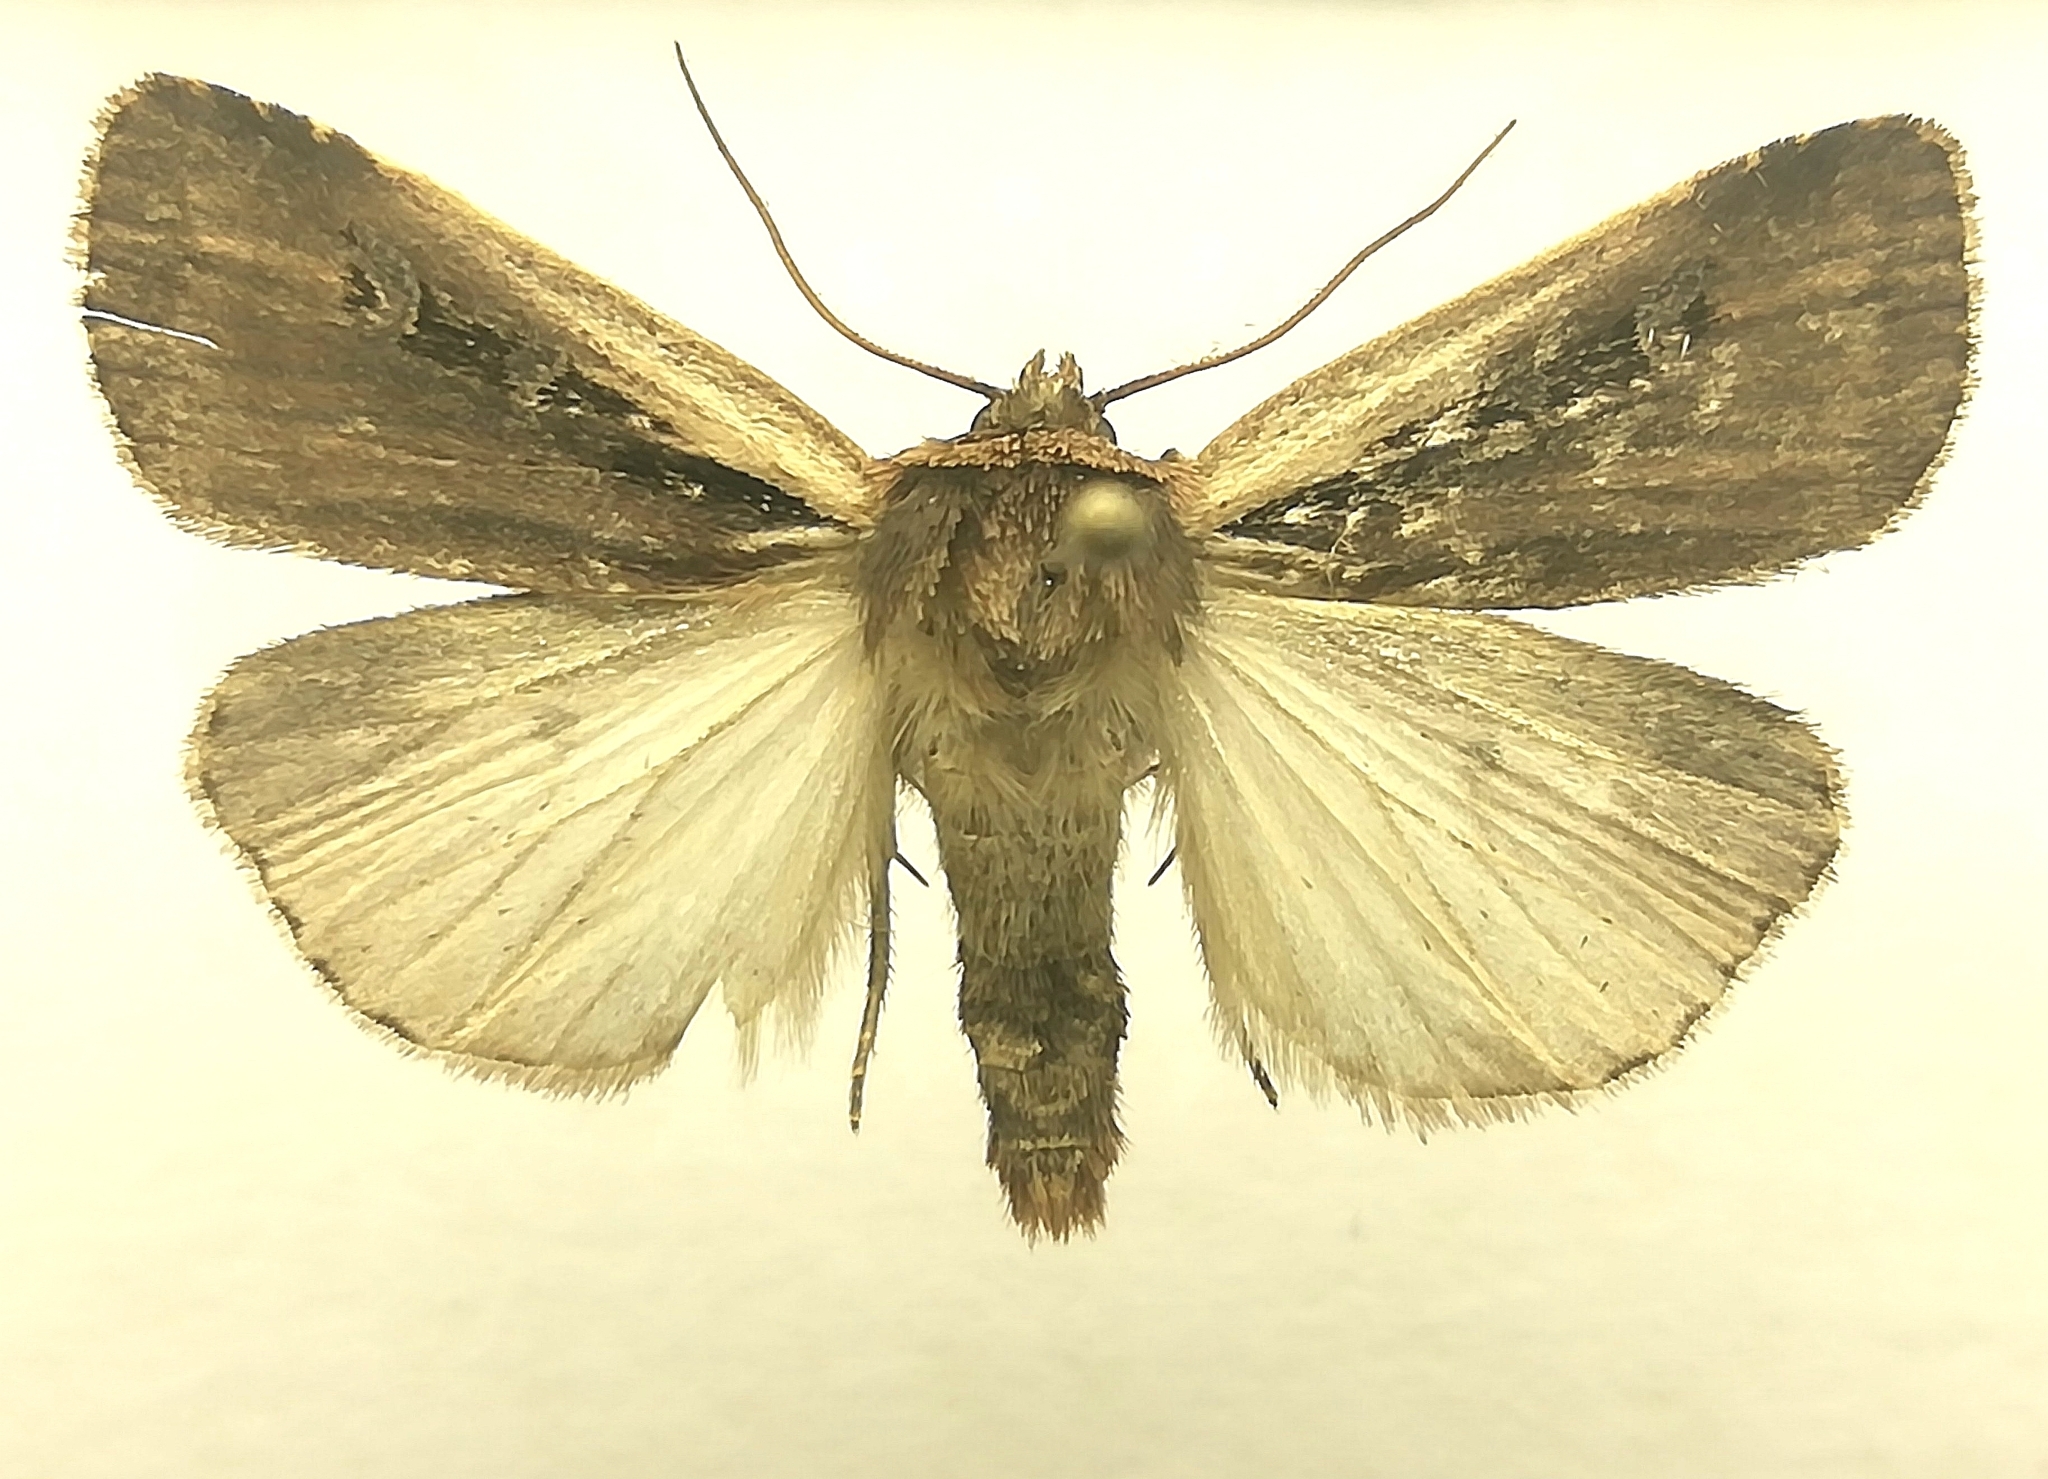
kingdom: Animalia
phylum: Arthropoda
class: Insecta
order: Lepidoptera
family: Noctuidae
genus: Ochropleura
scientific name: Ochropleura plecta
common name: Flame shoulder
